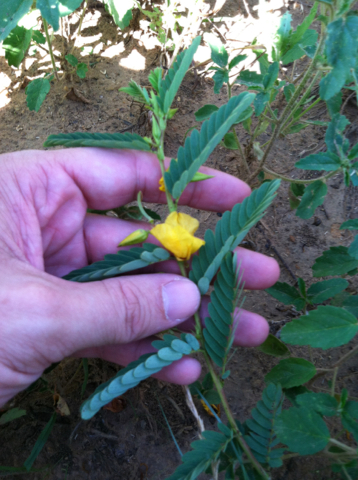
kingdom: Plantae
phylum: Tracheophyta
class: Magnoliopsida
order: Fabales
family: Fabaceae
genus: Chamaecrista
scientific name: Chamaecrista fasciculata
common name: Golden cassia
